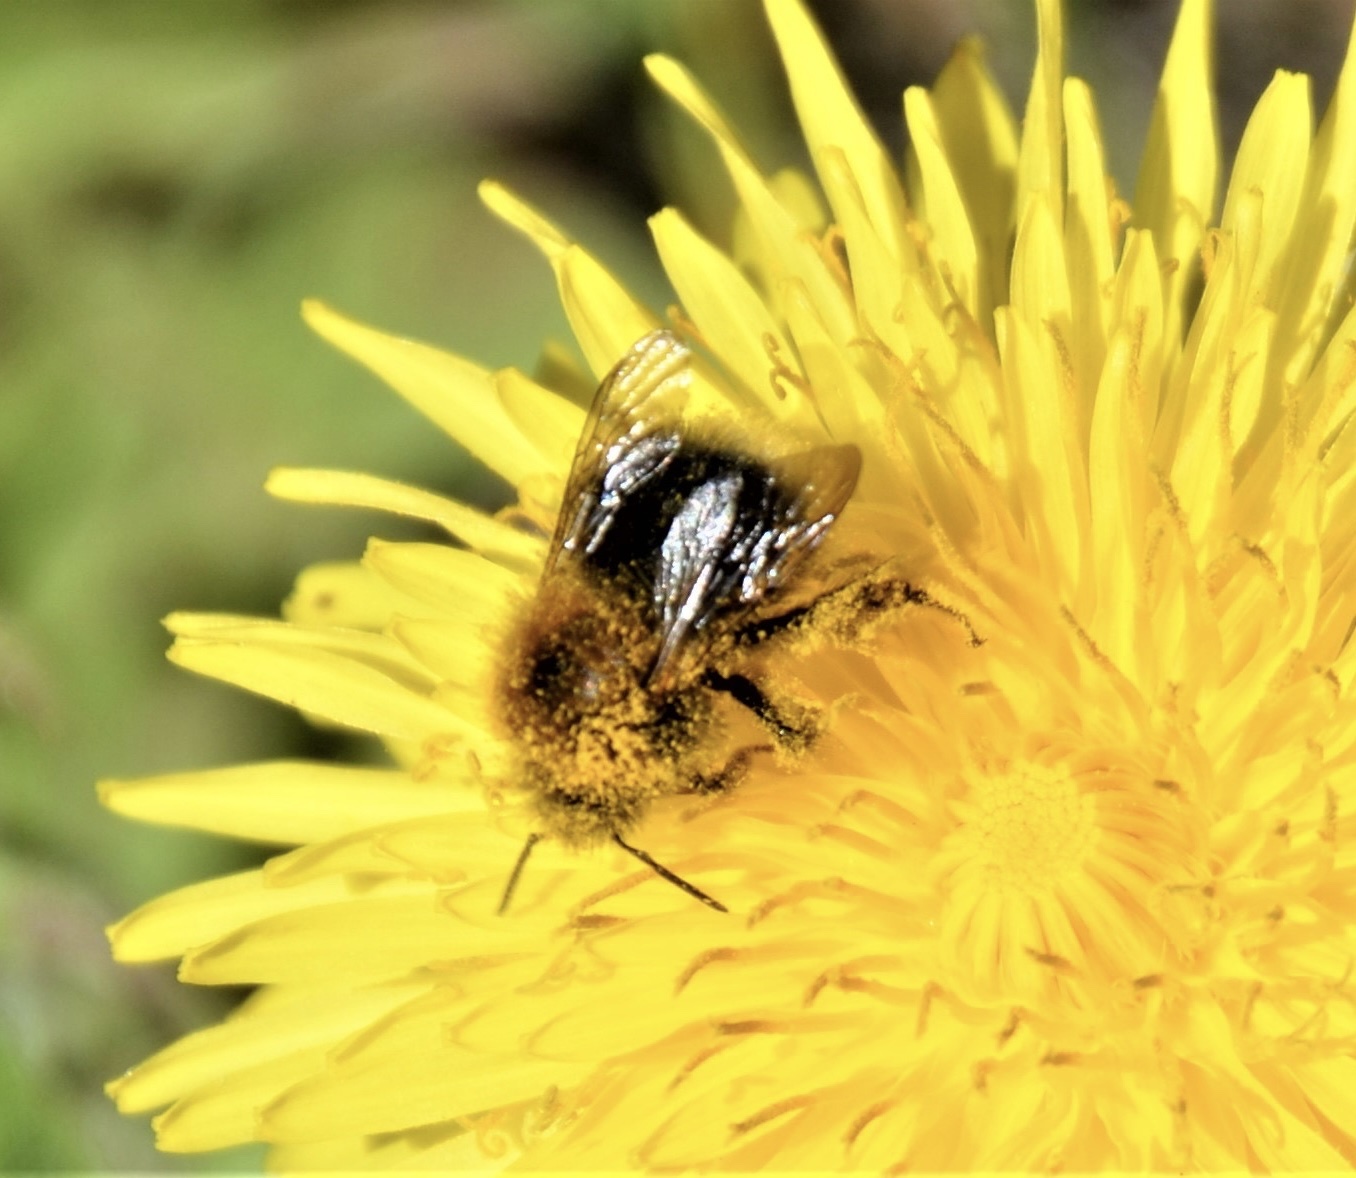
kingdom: Animalia
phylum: Arthropoda
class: Insecta
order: Hymenoptera
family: Apidae
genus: Bombus
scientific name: Bombus hypnorum
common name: New garden bumblebee
